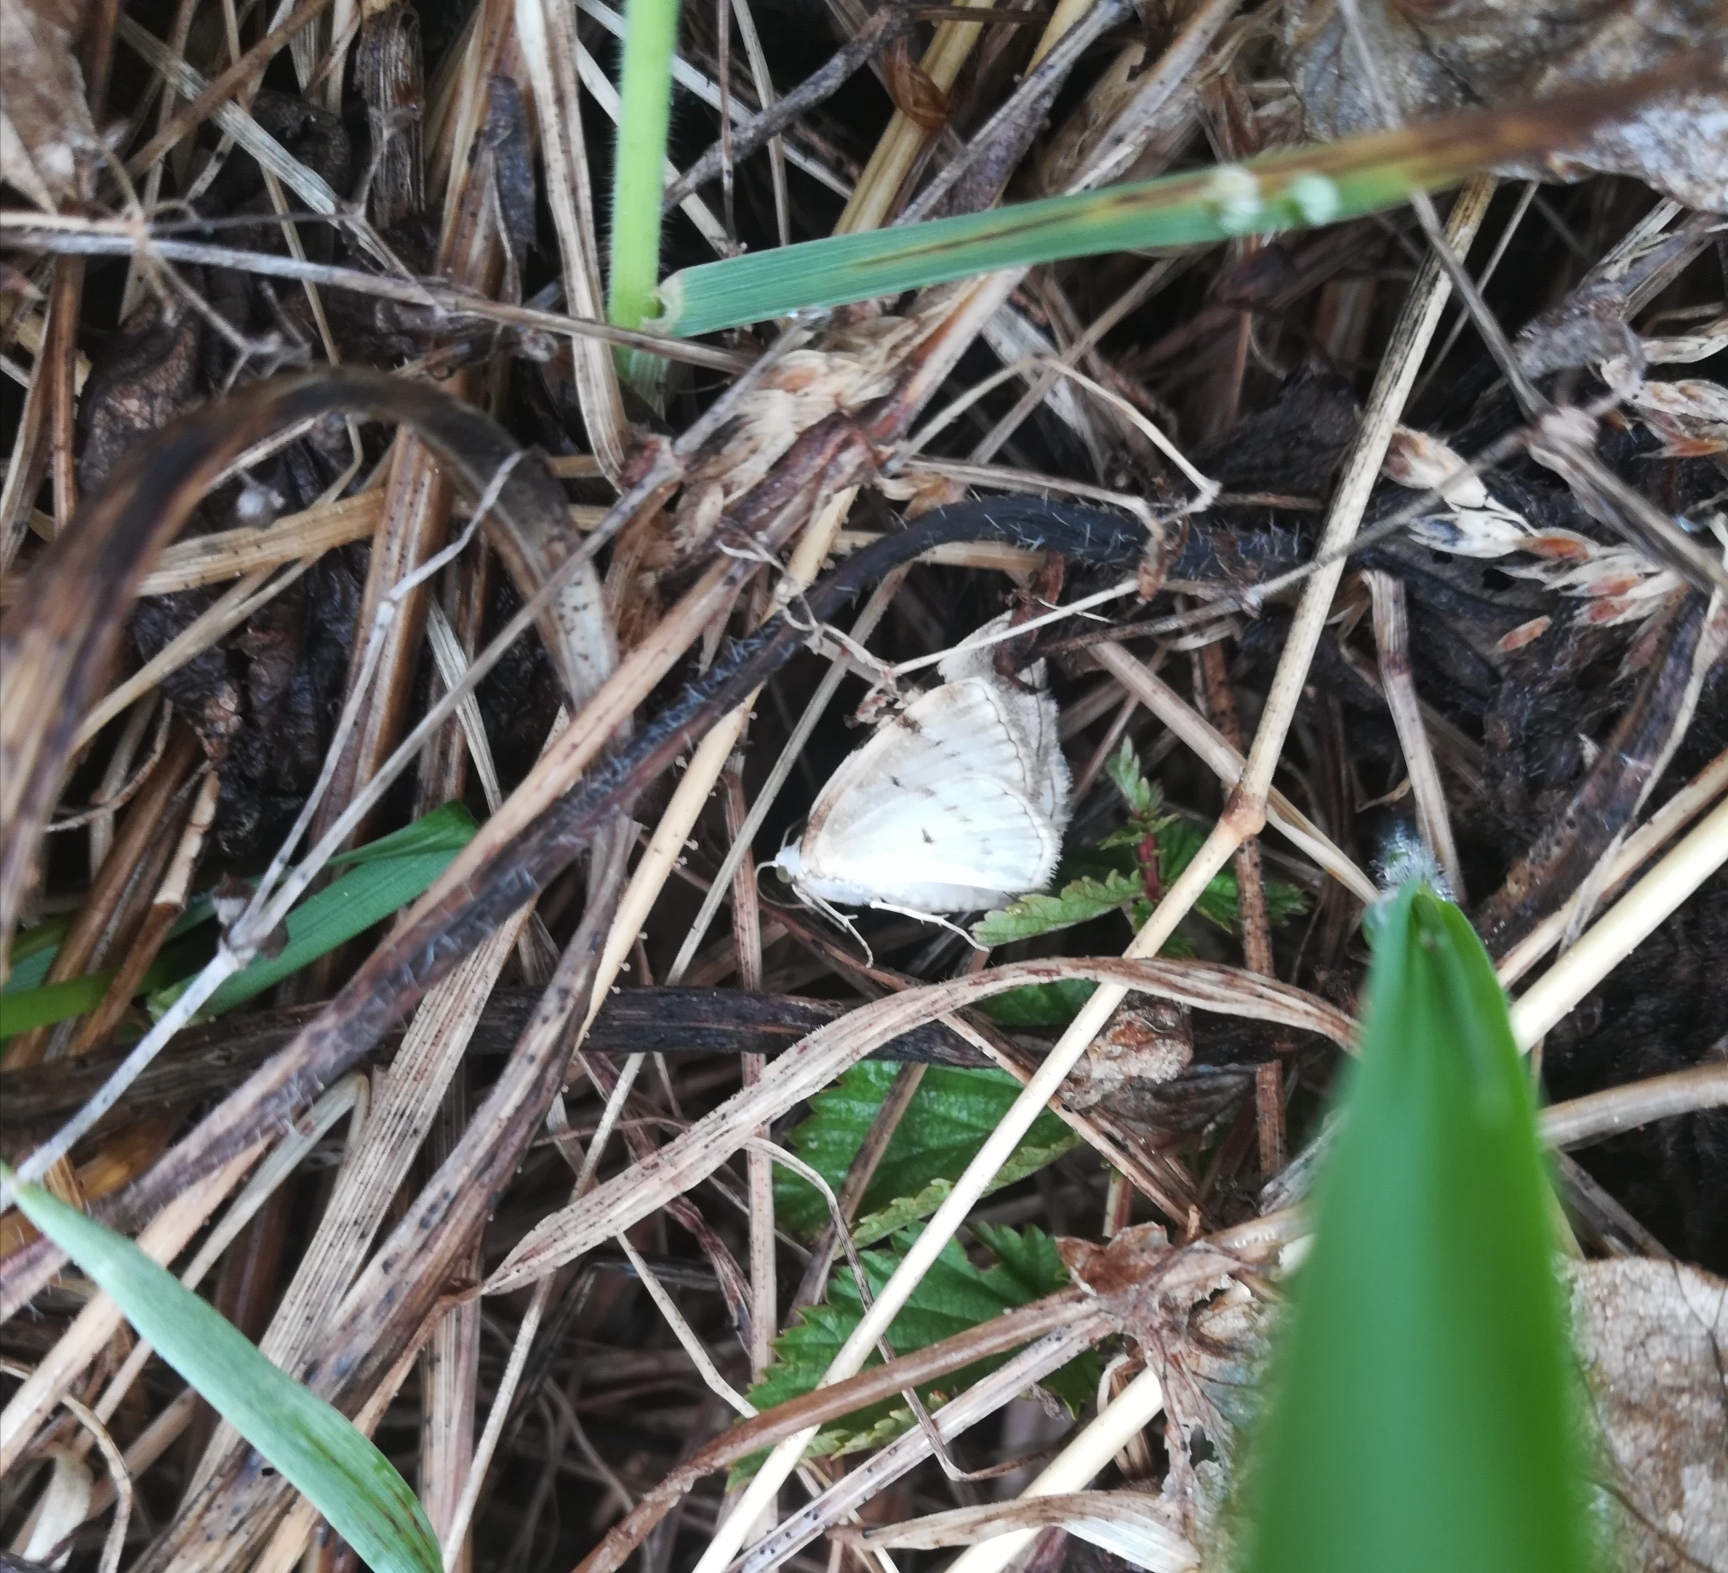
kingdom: Animalia
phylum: Arthropoda
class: Insecta
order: Lepidoptera
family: Geometridae
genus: Lomographa
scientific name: Lomographa bimaculata
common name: White-pinion spotted
